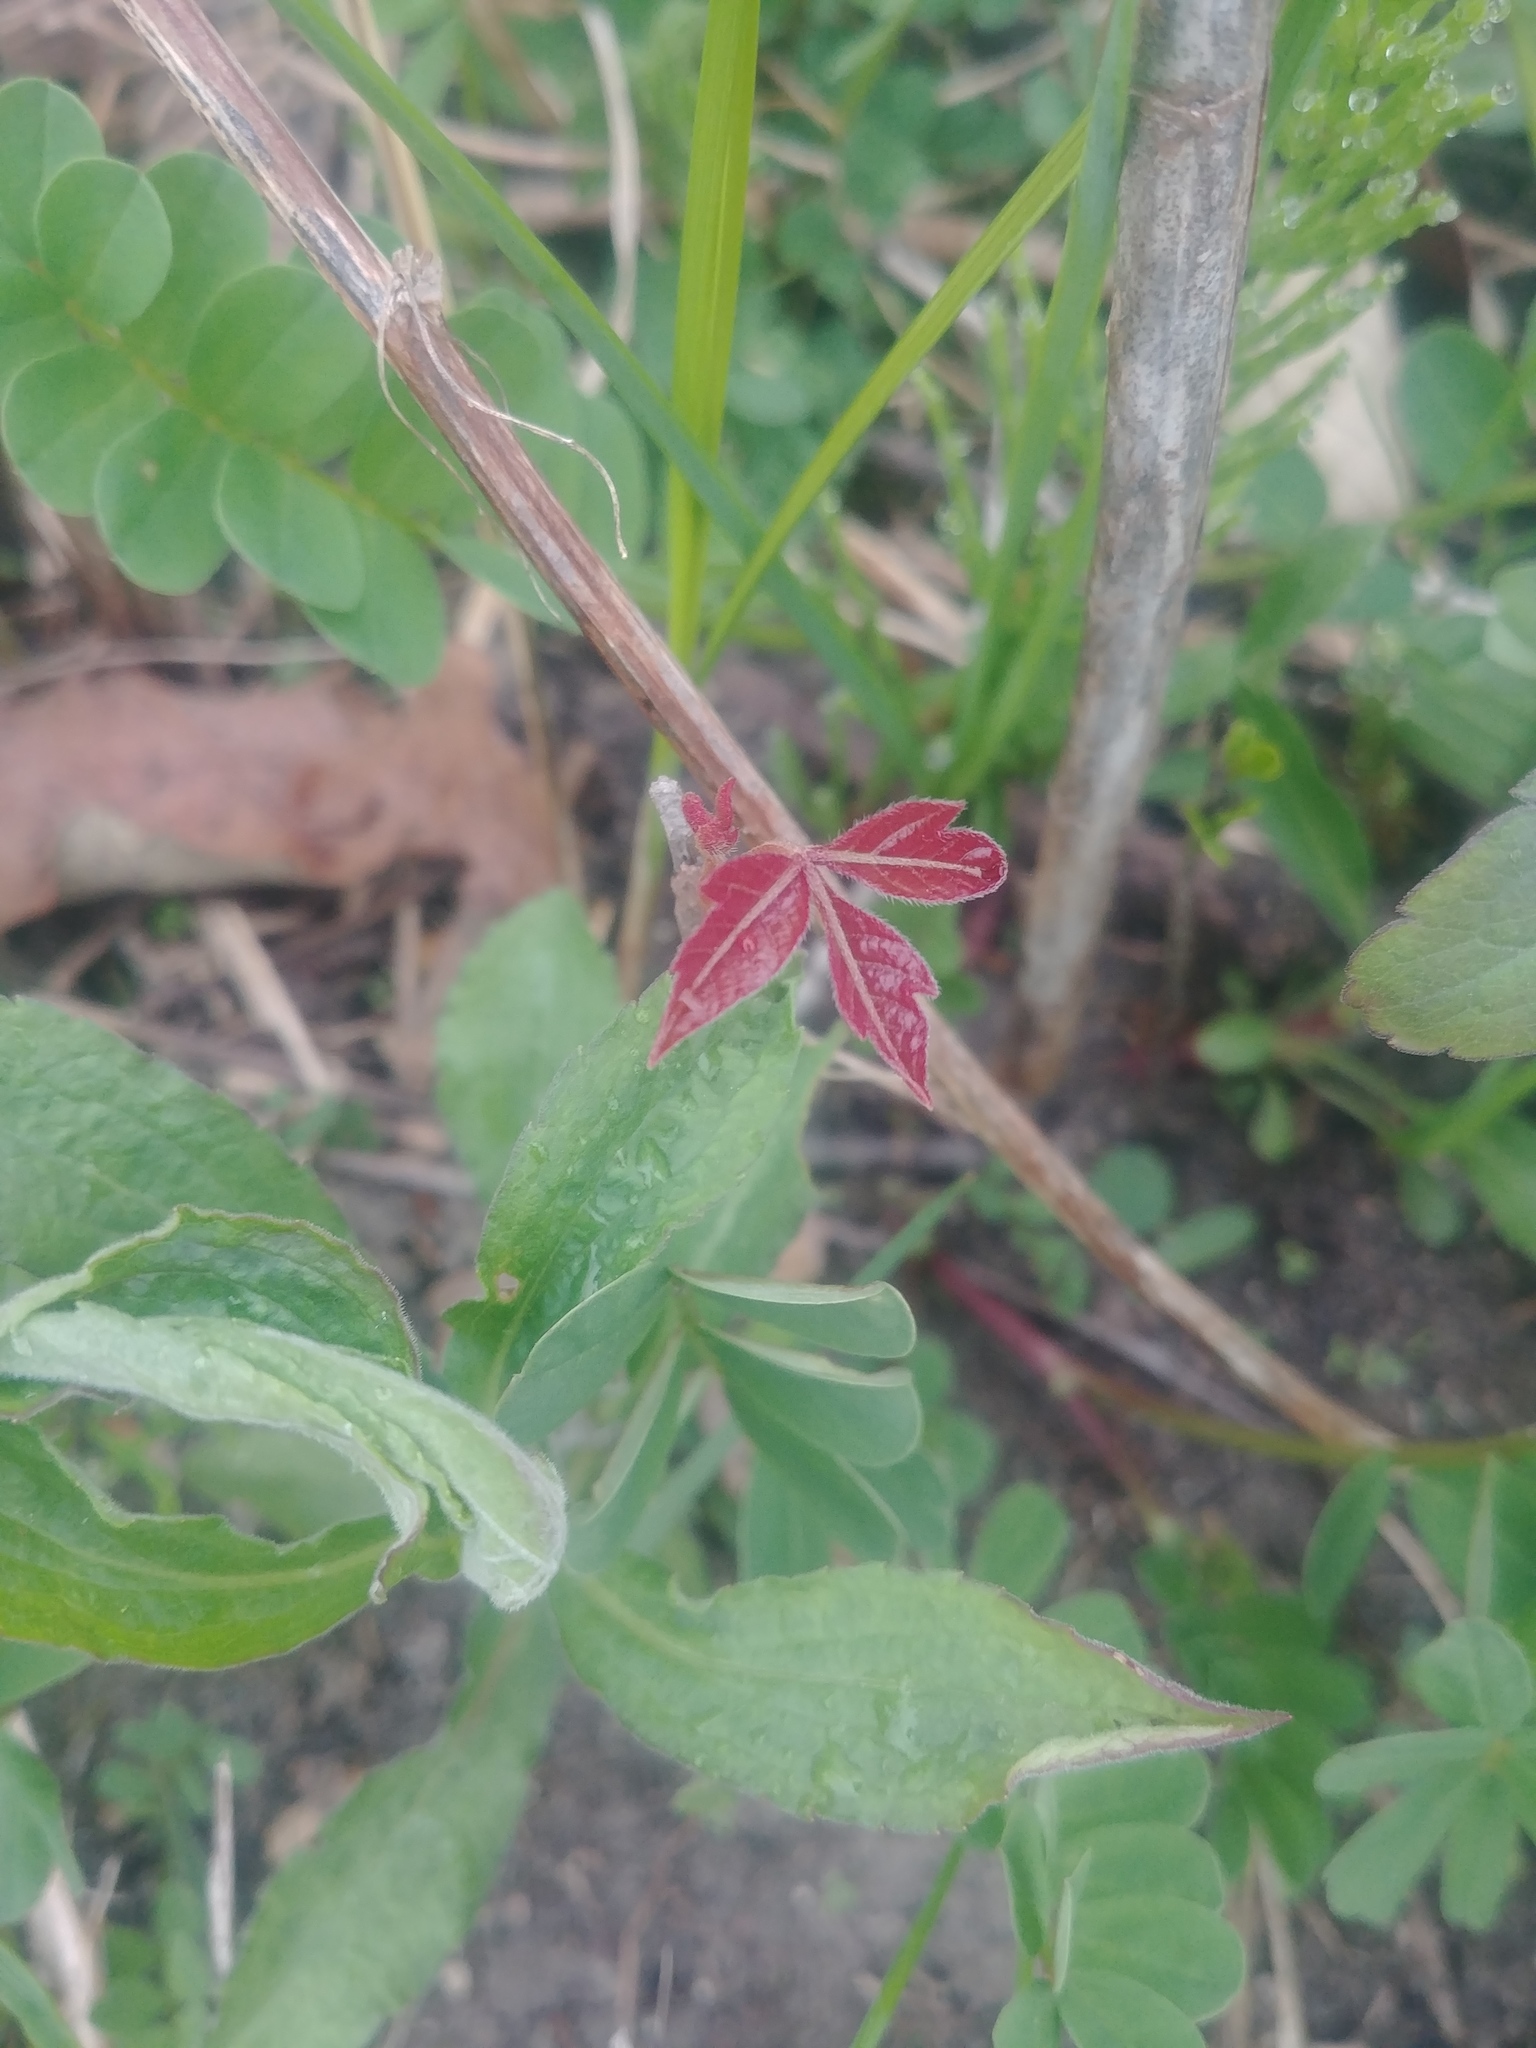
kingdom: Plantae
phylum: Tracheophyta
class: Magnoliopsida
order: Sapindales
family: Anacardiaceae
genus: Toxicodendron
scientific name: Toxicodendron radicans
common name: Poison ivy
